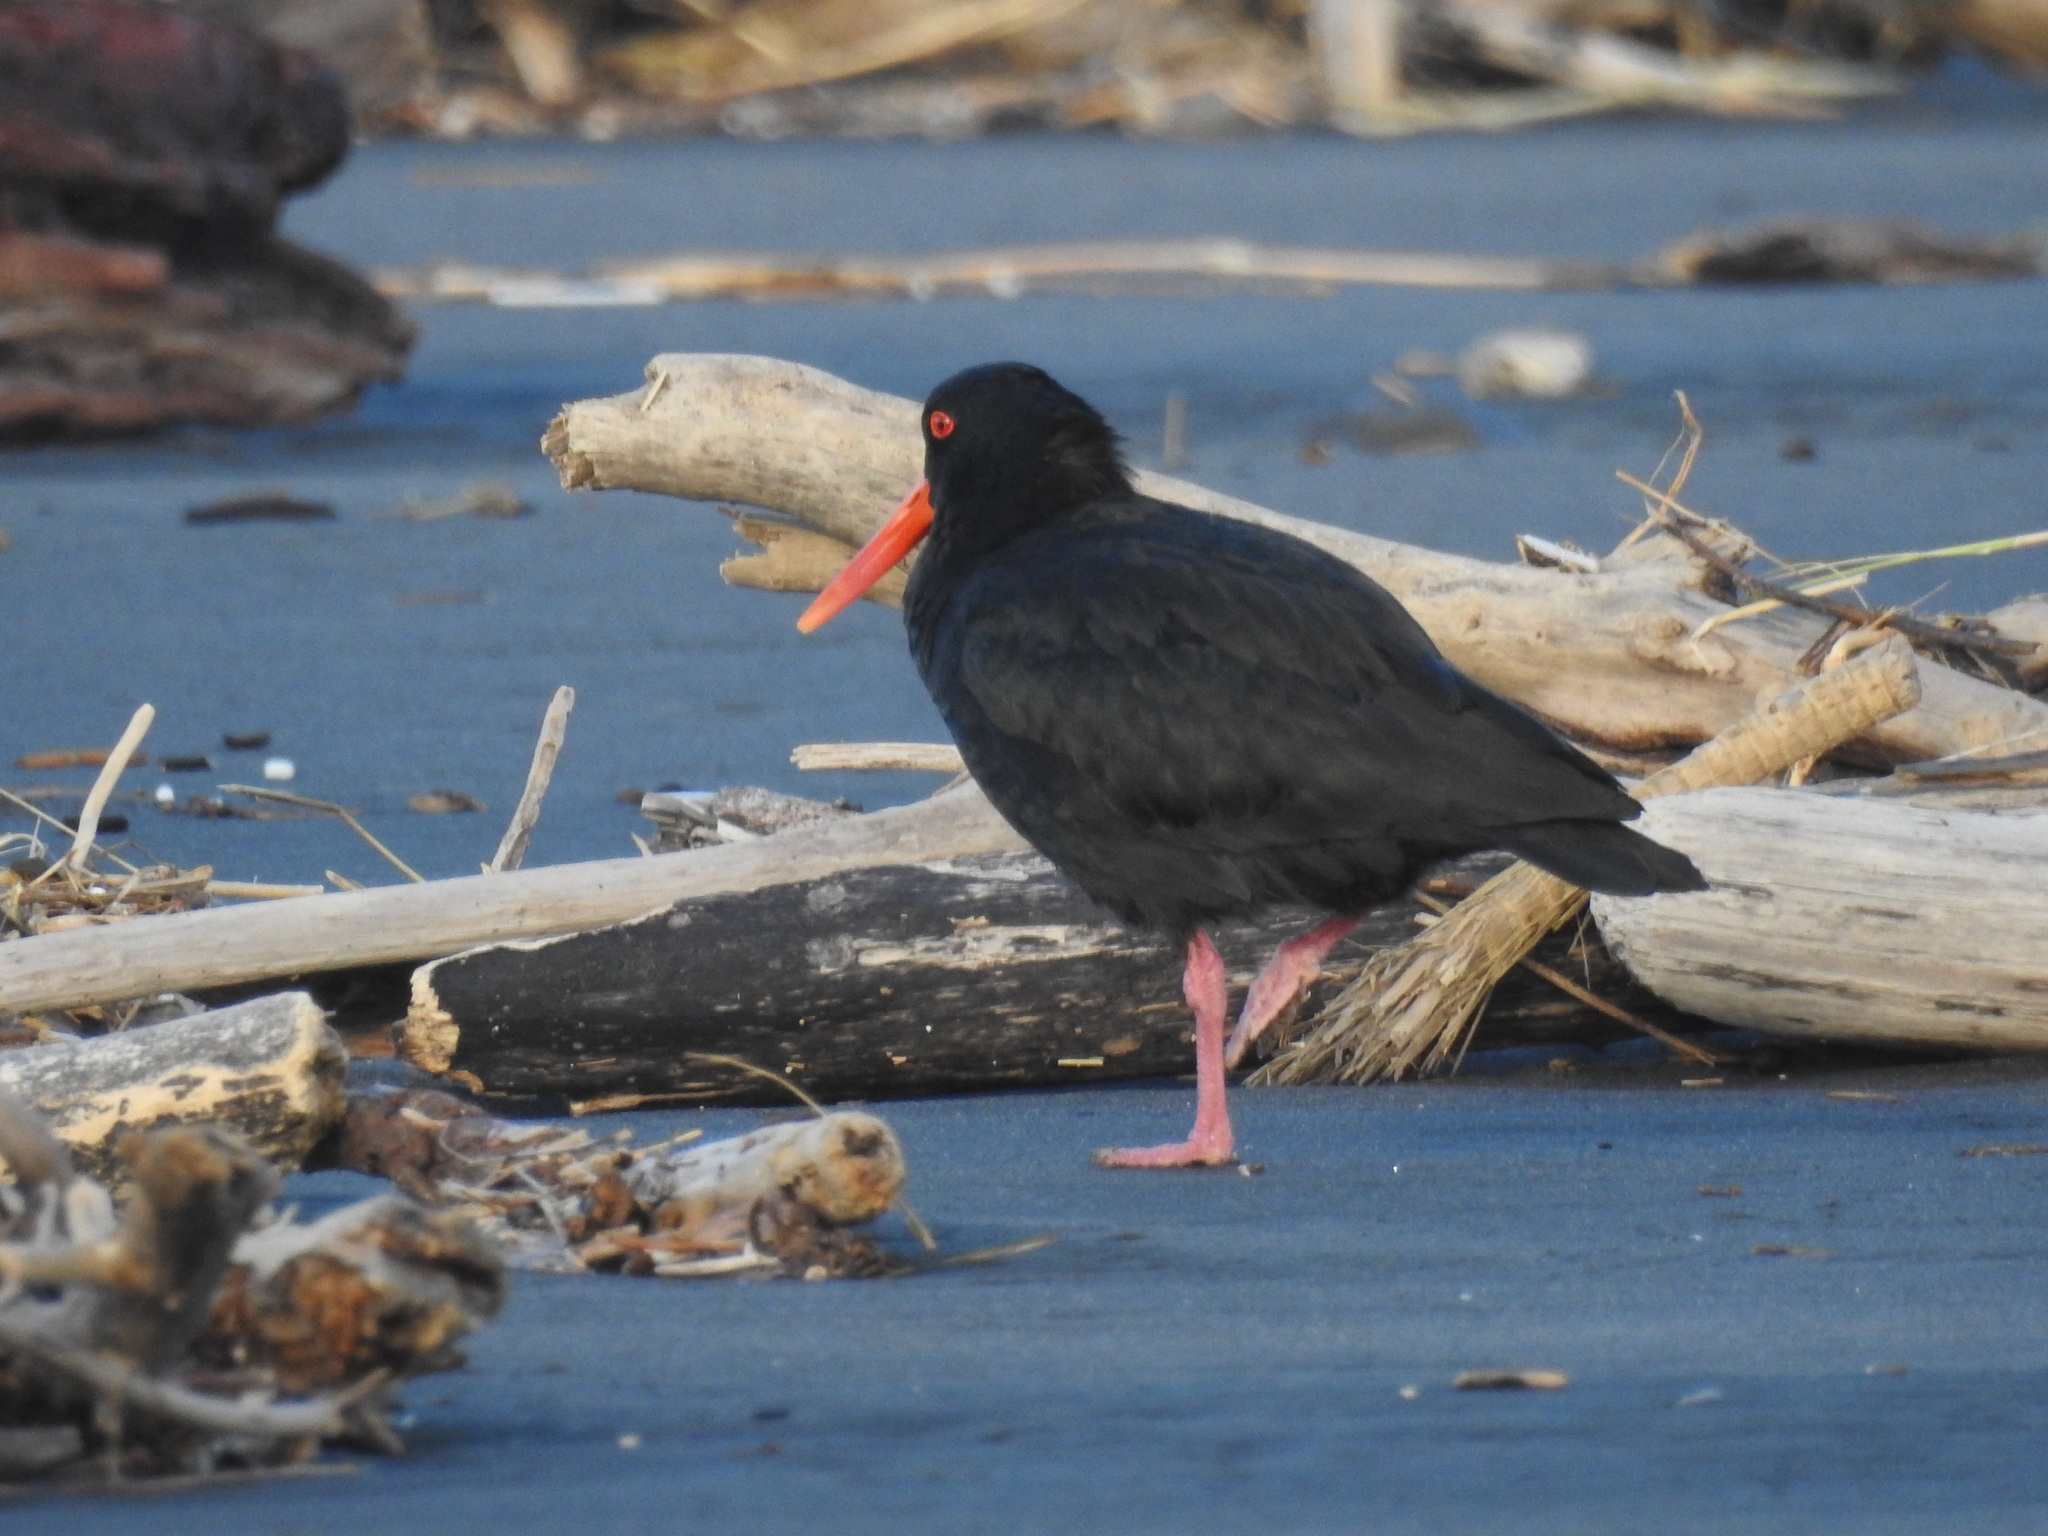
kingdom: Animalia
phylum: Chordata
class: Aves
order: Charadriiformes
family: Haematopodidae
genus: Haematopus
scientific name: Haematopus unicolor
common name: Variable oystercatcher
